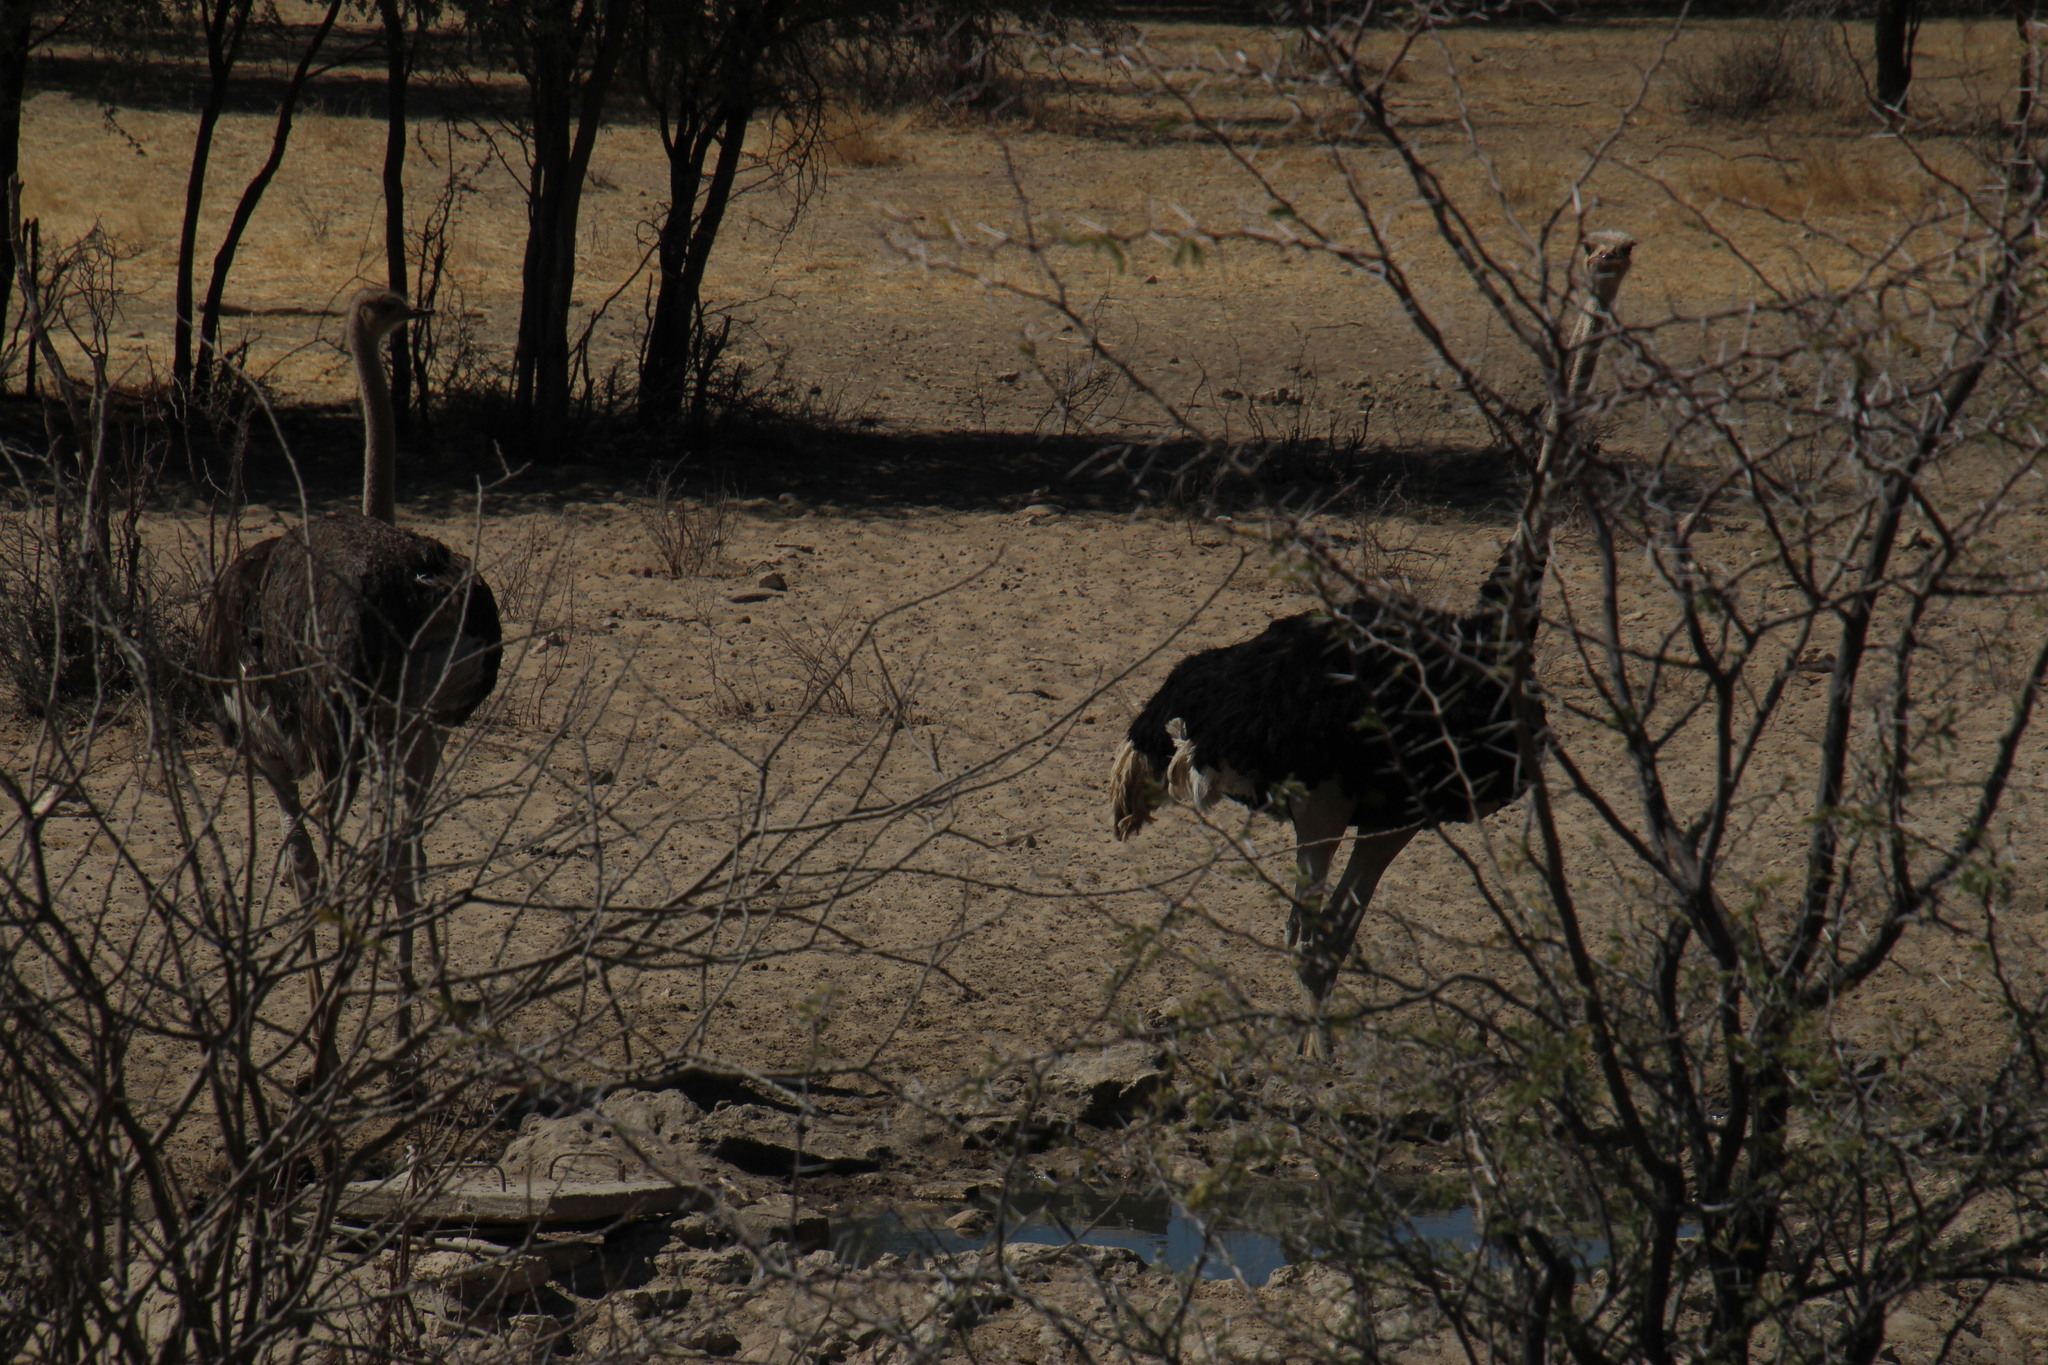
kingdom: Animalia
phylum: Chordata
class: Aves
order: Struthioniformes
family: Struthionidae
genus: Struthio
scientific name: Struthio camelus
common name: Common ostrich
